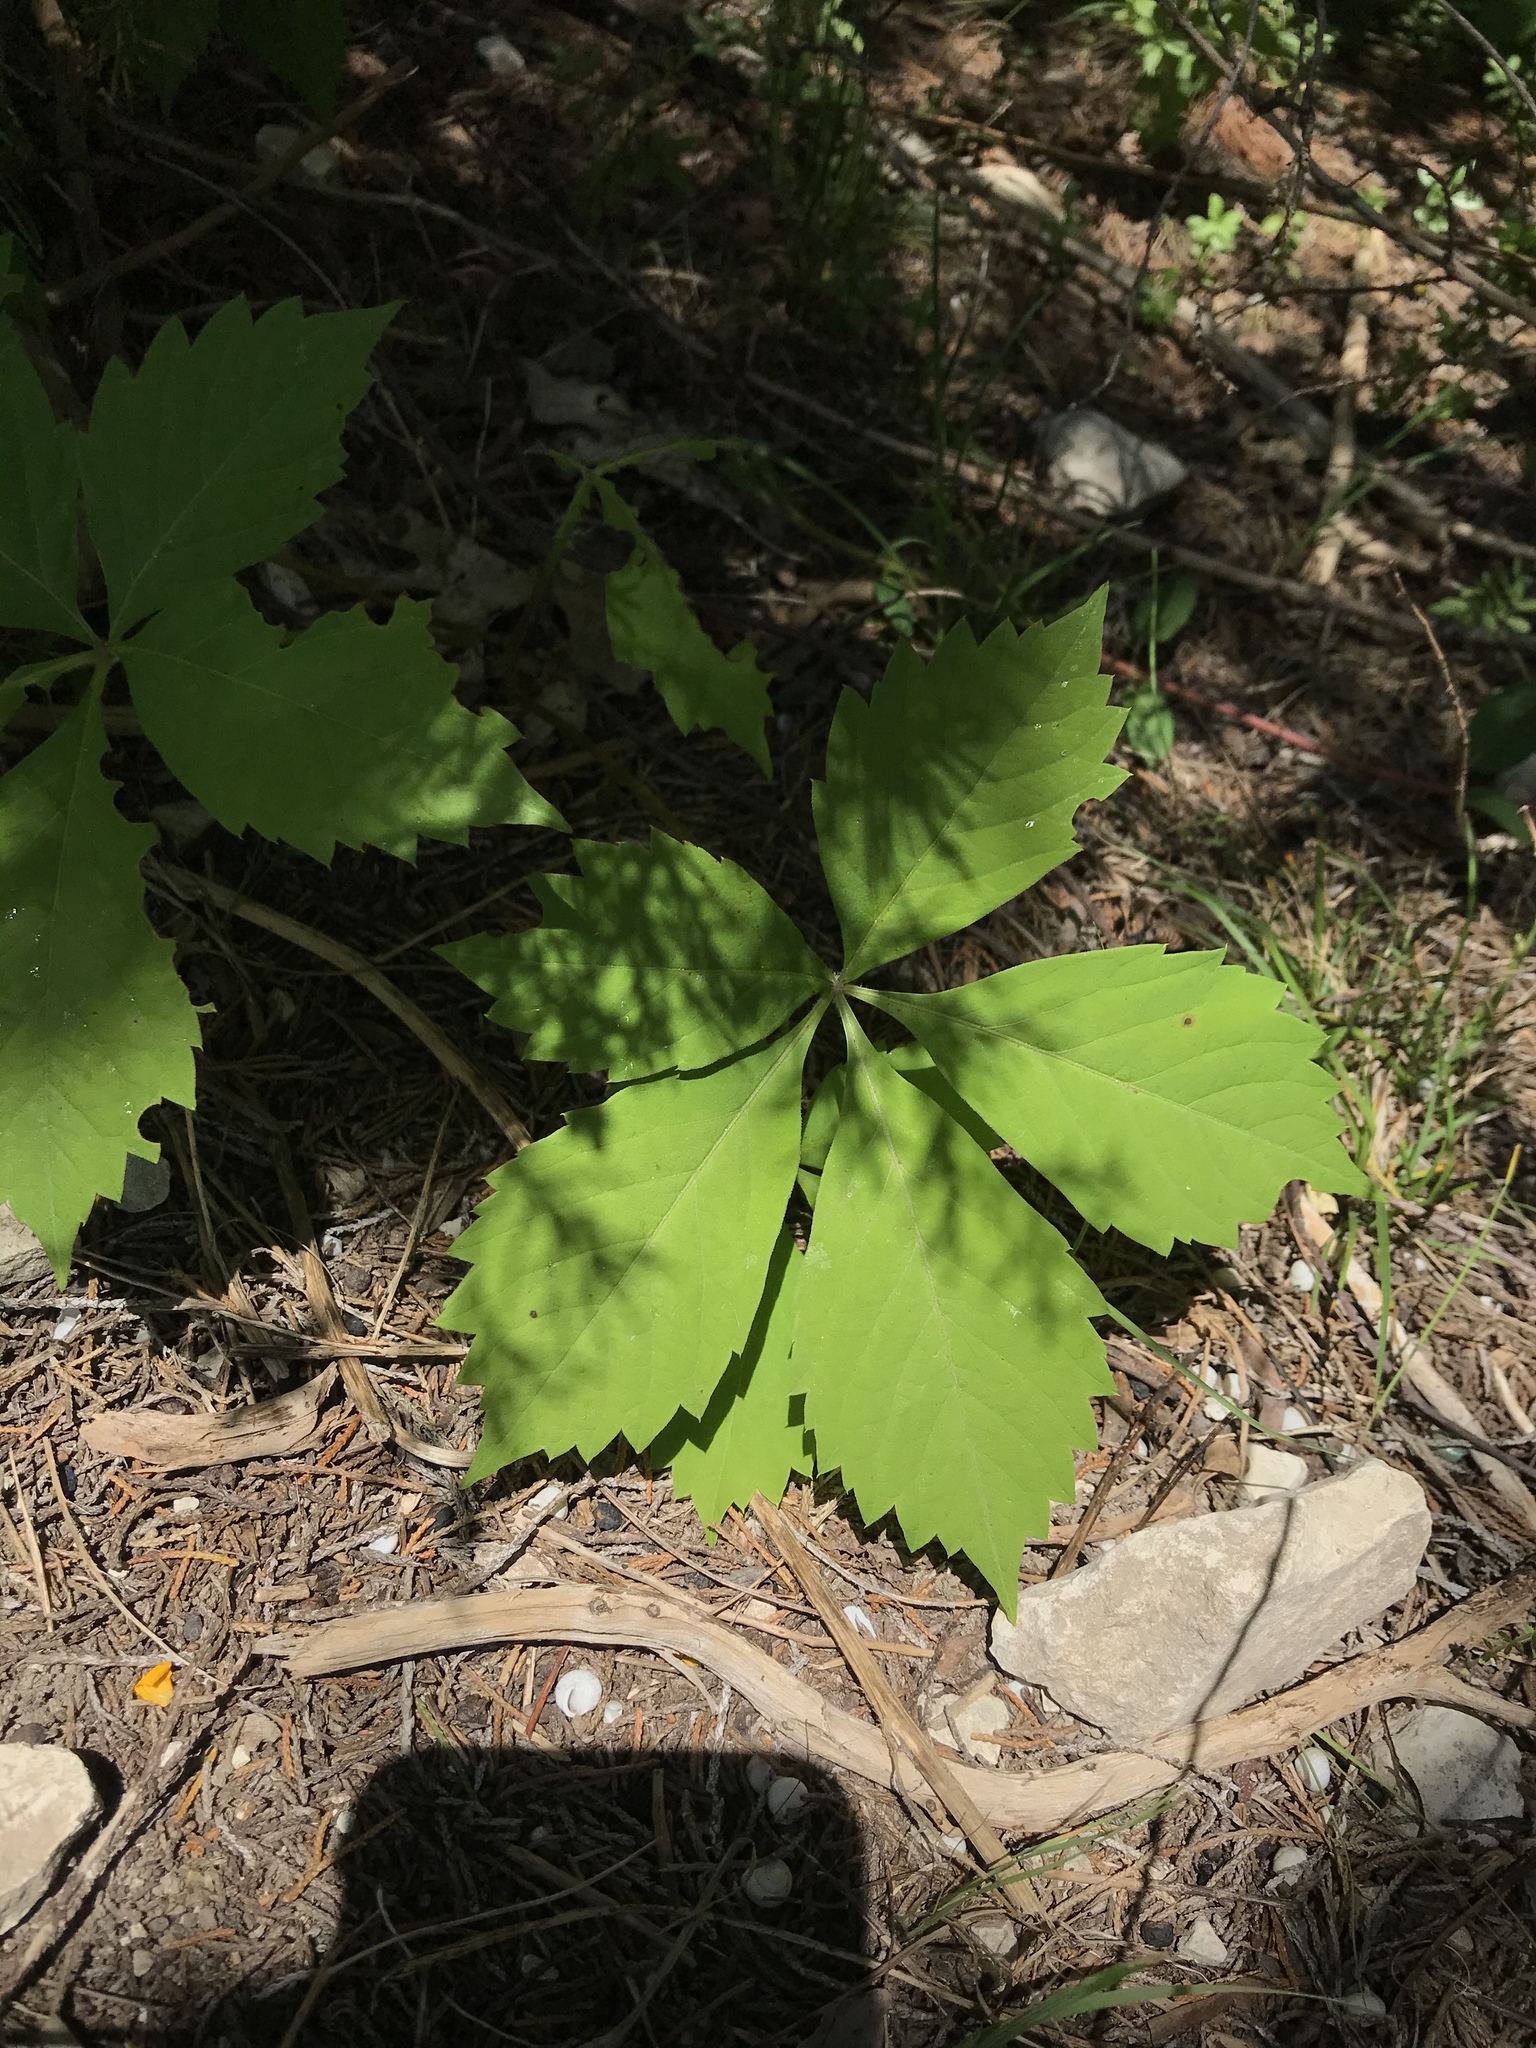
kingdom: Plantae
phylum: Tracheophyta
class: Magnoliopsida
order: Vitales
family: Vitaceae
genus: Parthenocissus
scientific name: Parthenocissus quinquefolia
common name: Virginia-creeper
